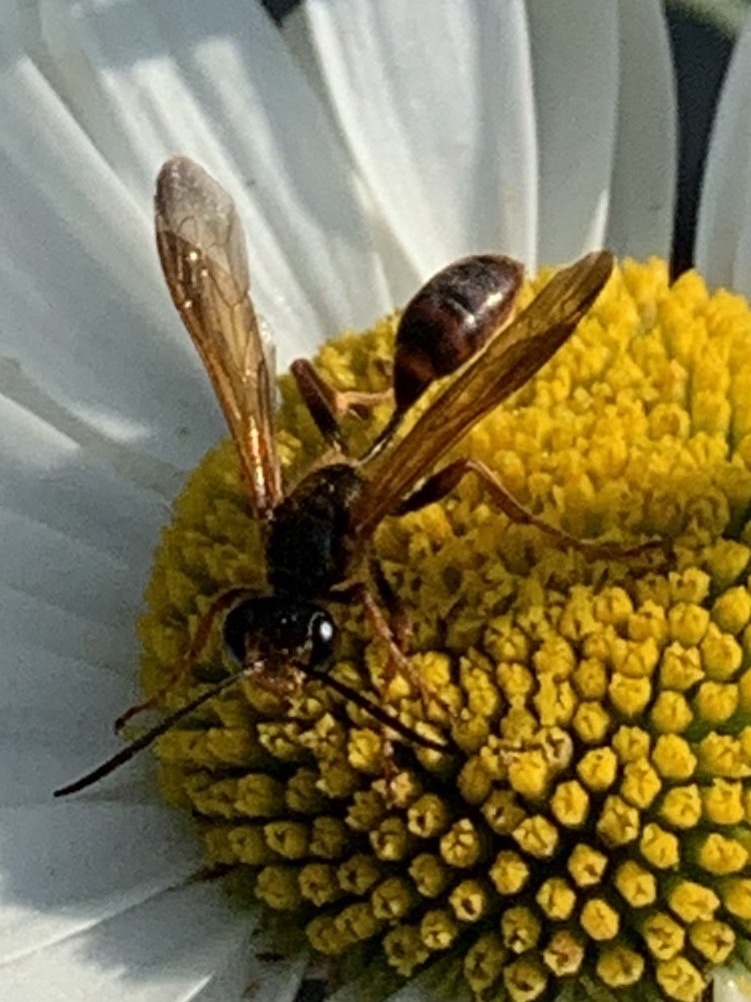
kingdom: Animalia
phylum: Arthropoda
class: Insecta
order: Hymenoptera
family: Sphecidae
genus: Isodontia
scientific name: Isodontia elegans
